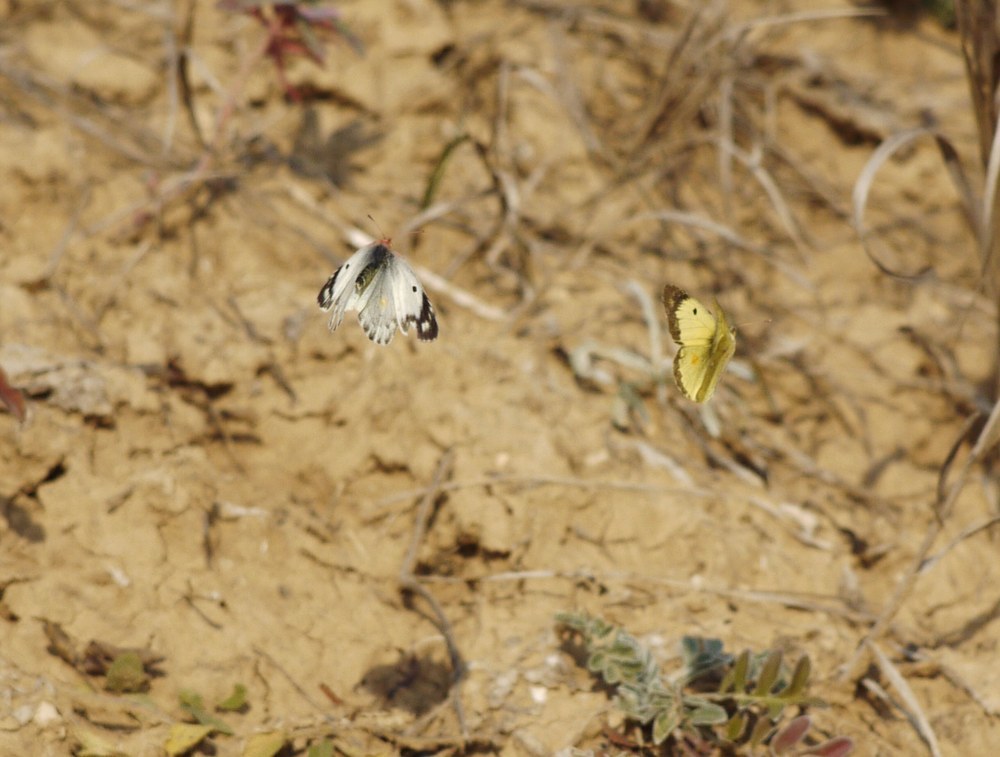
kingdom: Animalia
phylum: Arthropoda
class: Insecta
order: Lepidoptera
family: Pieridae
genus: Colias
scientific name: Colias erate
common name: Eastern pale clouded yellow
